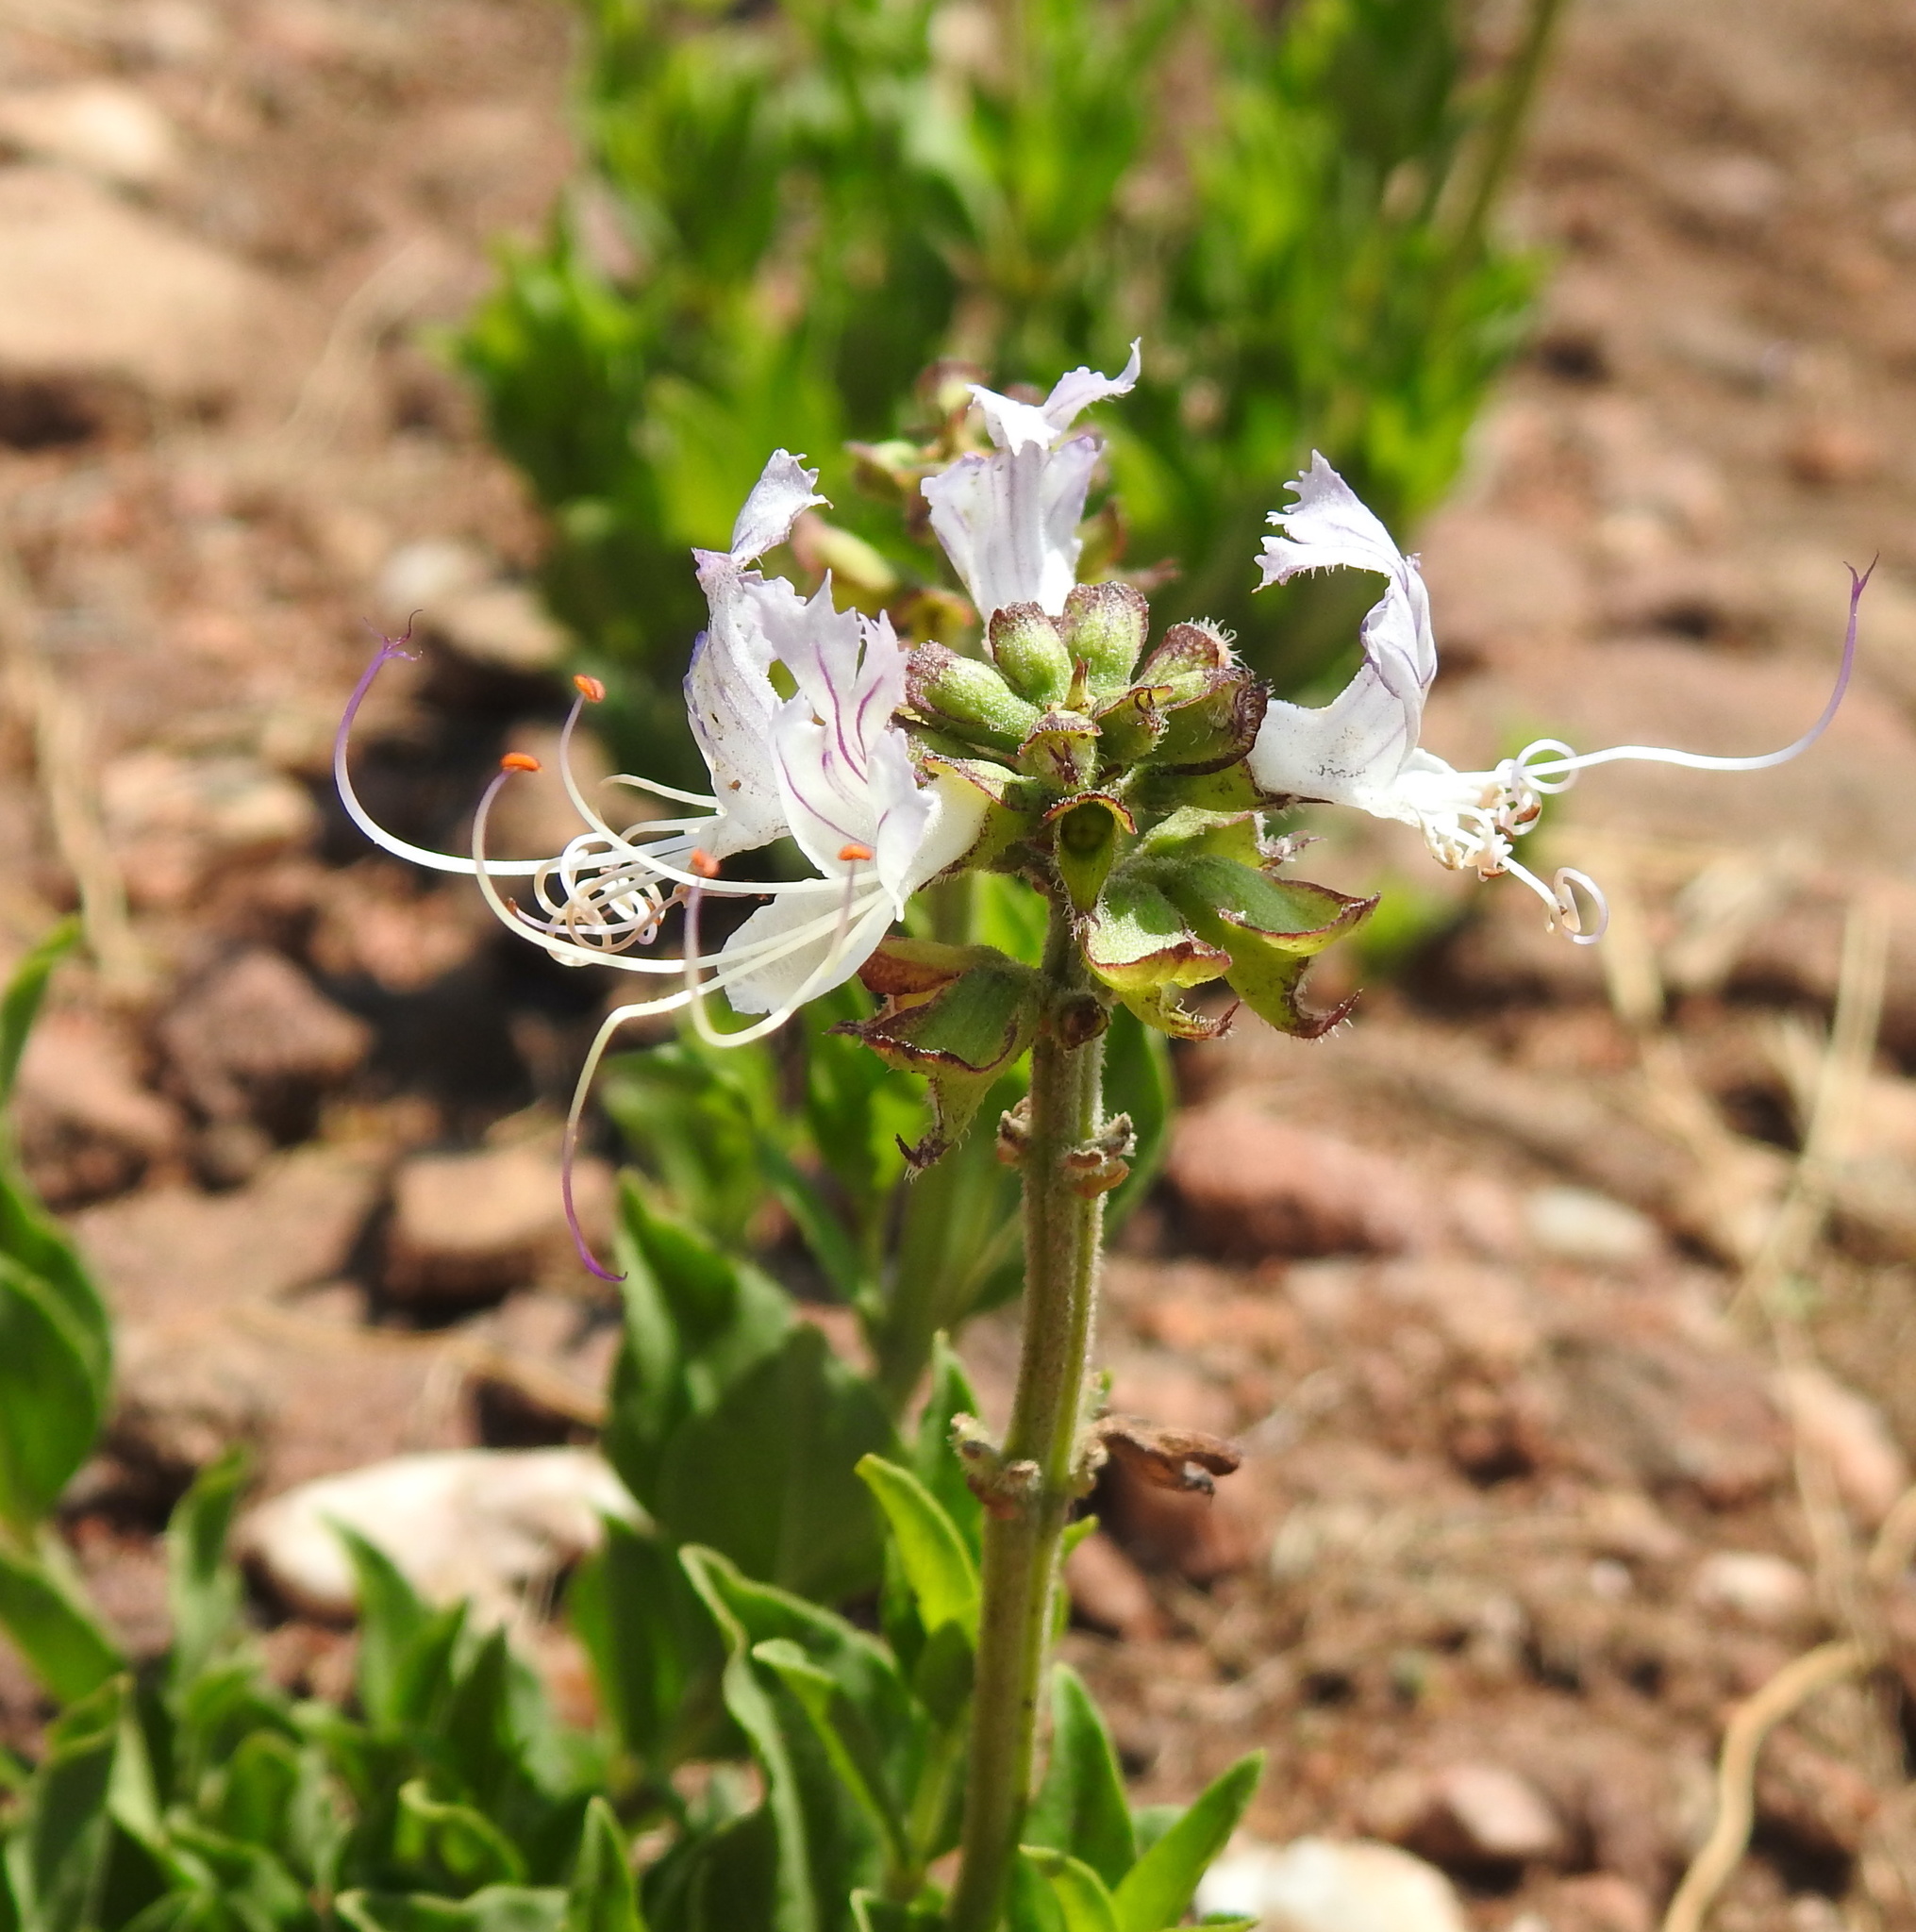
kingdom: Plantae
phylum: Tracheophyta
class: Magnoliopsida
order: Lamiales
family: Lamiaceae
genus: Ocimum
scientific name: Ocimum obovatum
